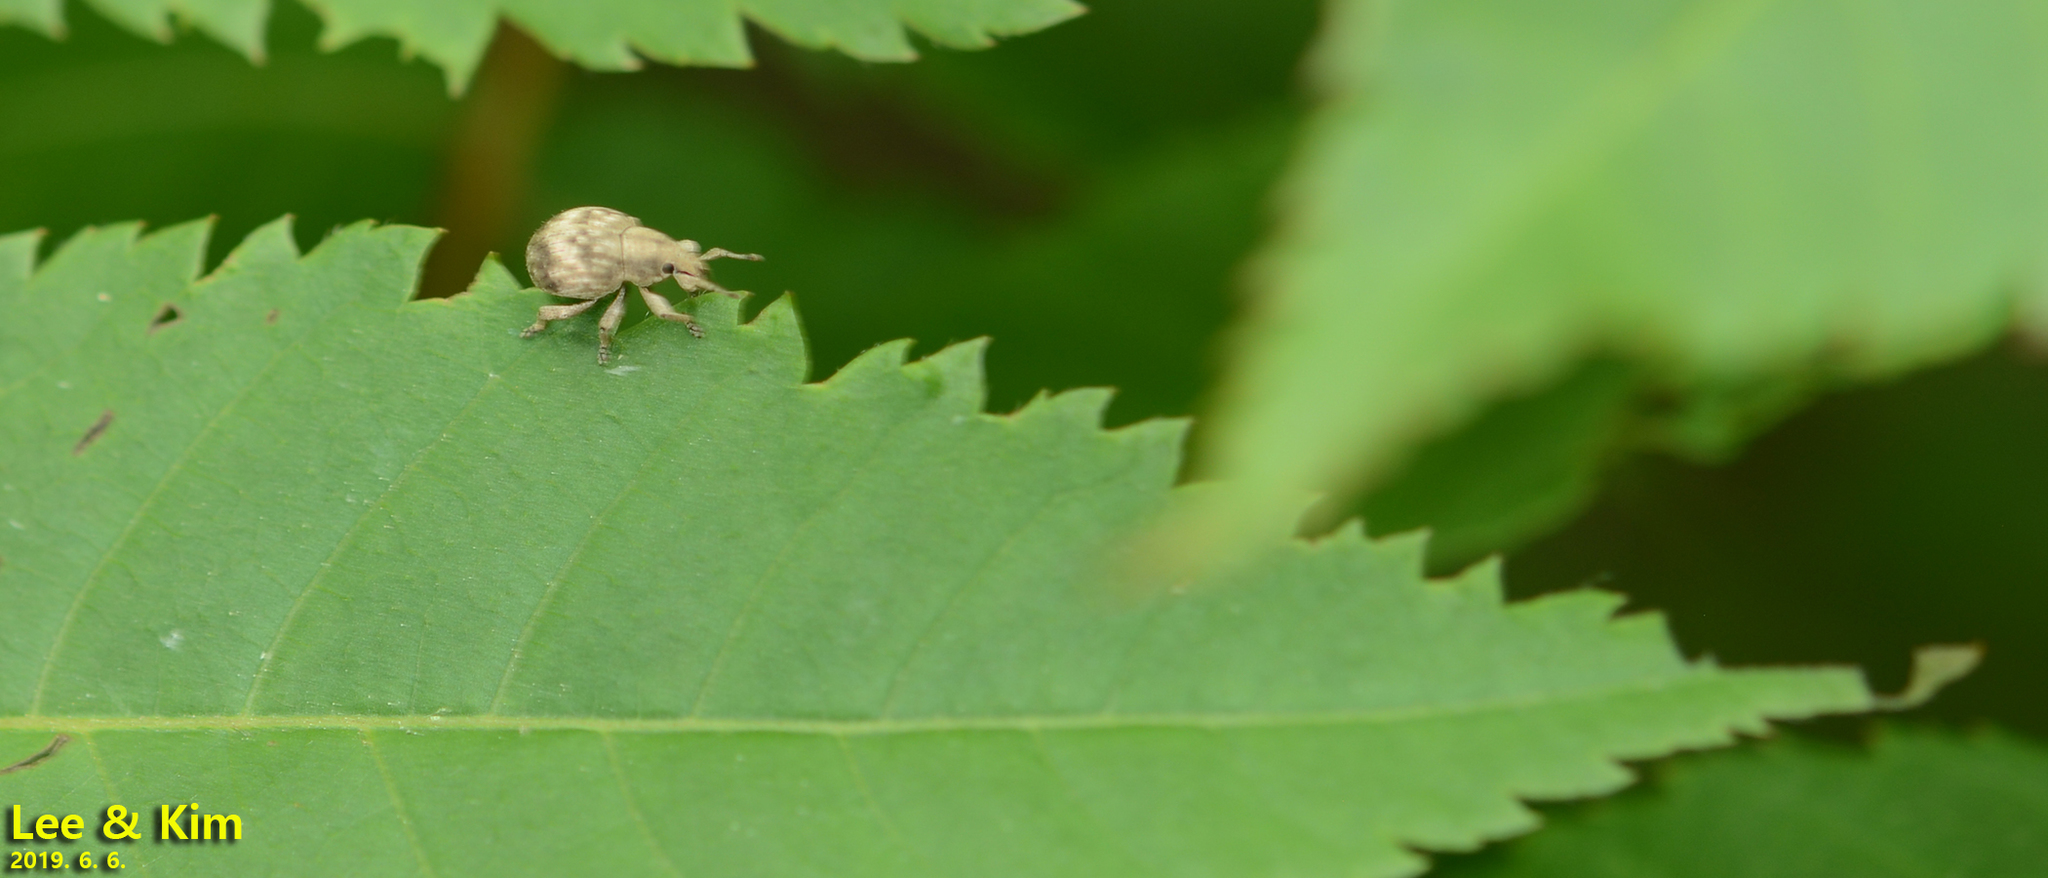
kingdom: Animalia
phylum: Arthropoda
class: Insecta
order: Coleoptera
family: Curculionidae
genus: Pseudocneorhinus
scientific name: Pseudocneorhinus bifasciatus
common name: Two-banded japanese weevil
